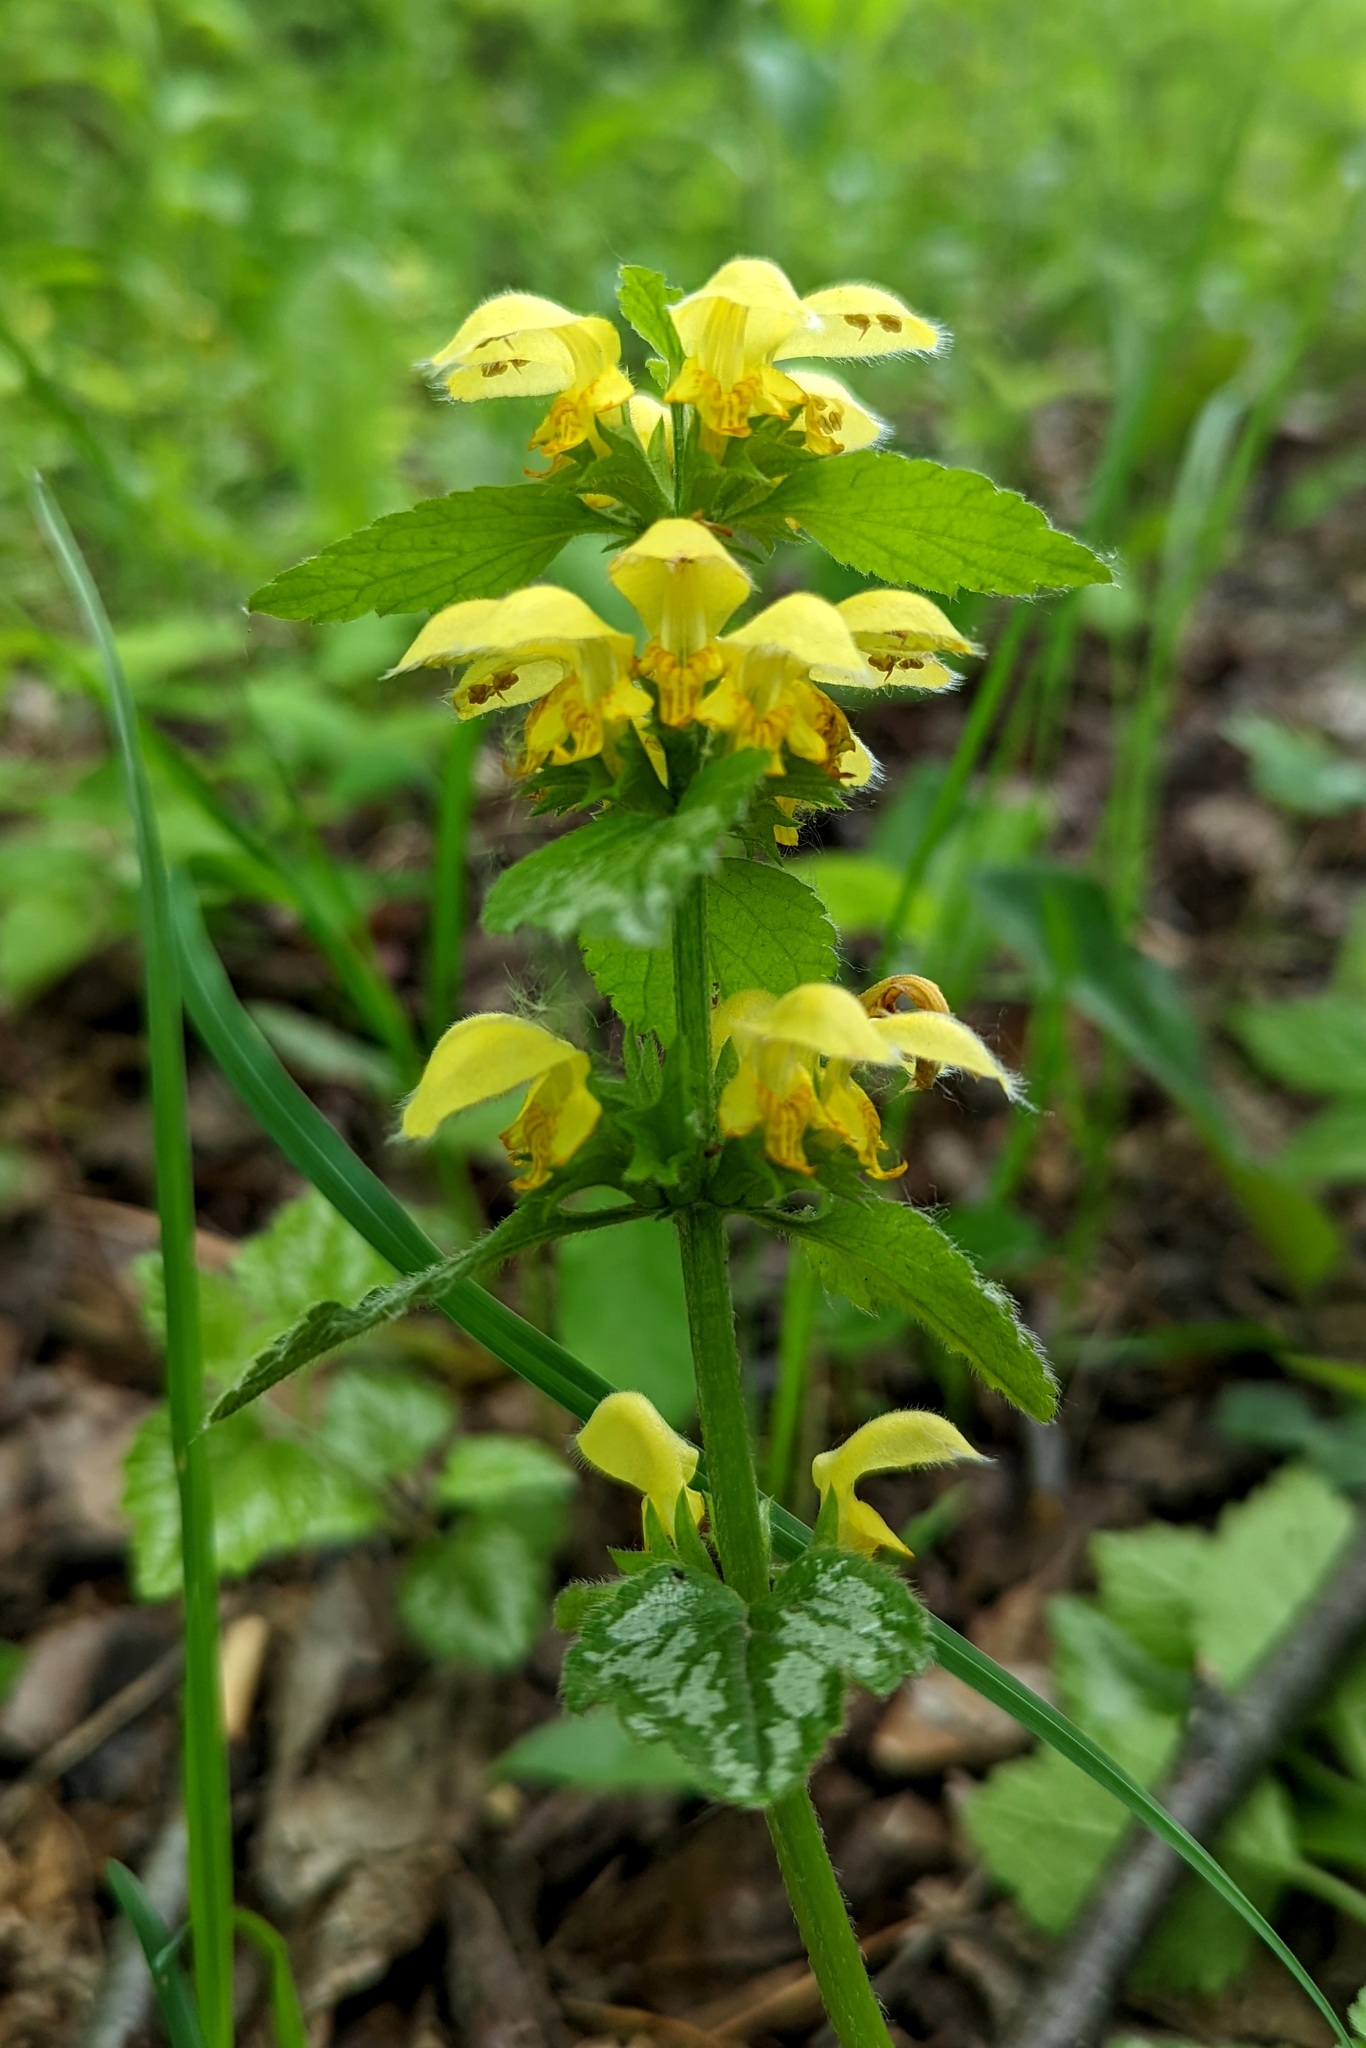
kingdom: Plantae
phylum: Tracheophyta
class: Magnoliopsida
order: Lamiales
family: Lamiaceae
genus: Lamium
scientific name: Lamium galeobdolon
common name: Yellow archangel
